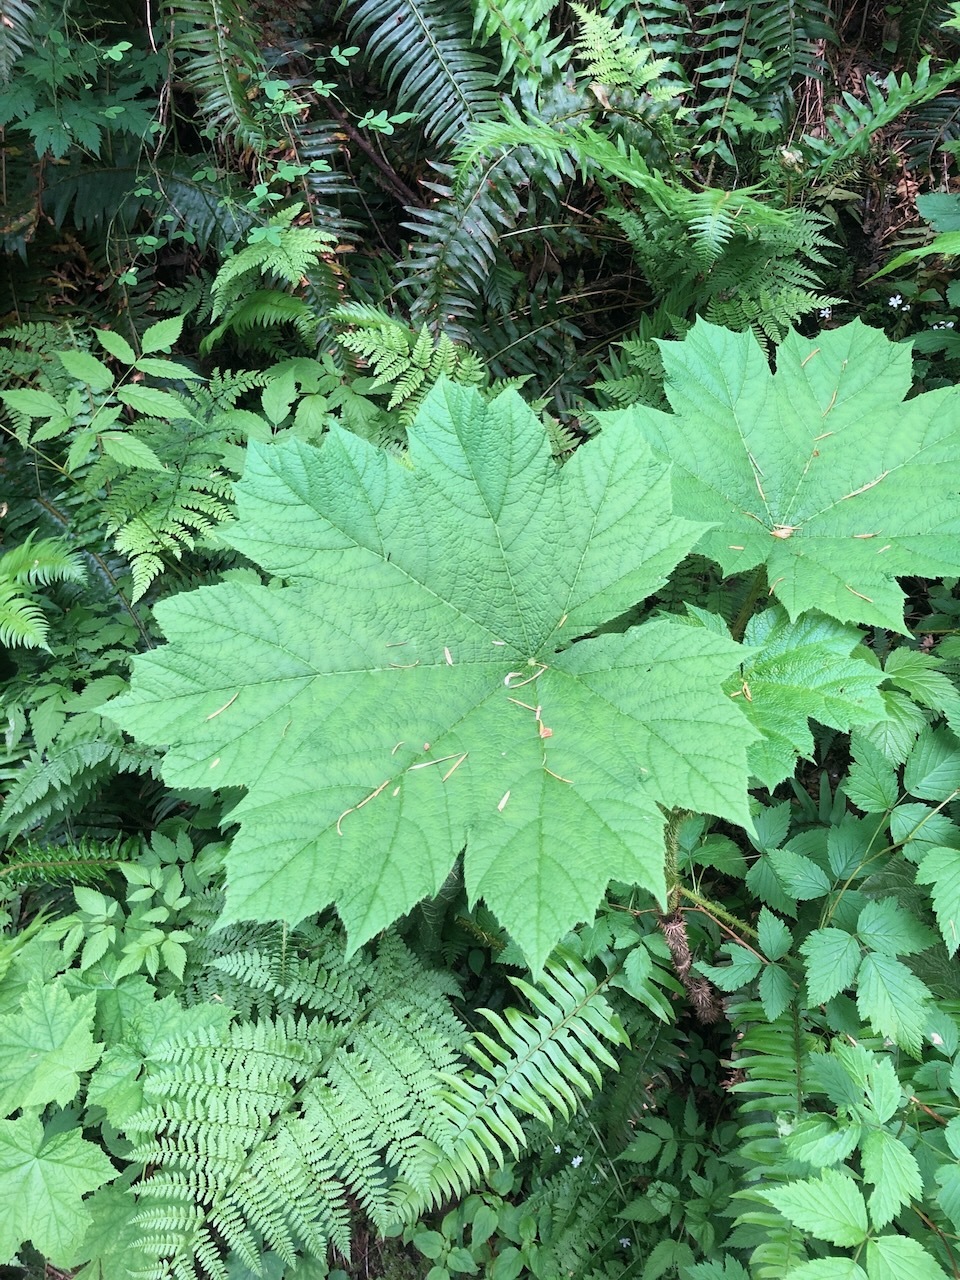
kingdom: Plantae
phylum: Tracheophyta
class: Magnoliopsida
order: Apiales
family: Araliaceae
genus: Oplopanax
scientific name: Oplopanax horridus
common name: Devil's walking-stick
